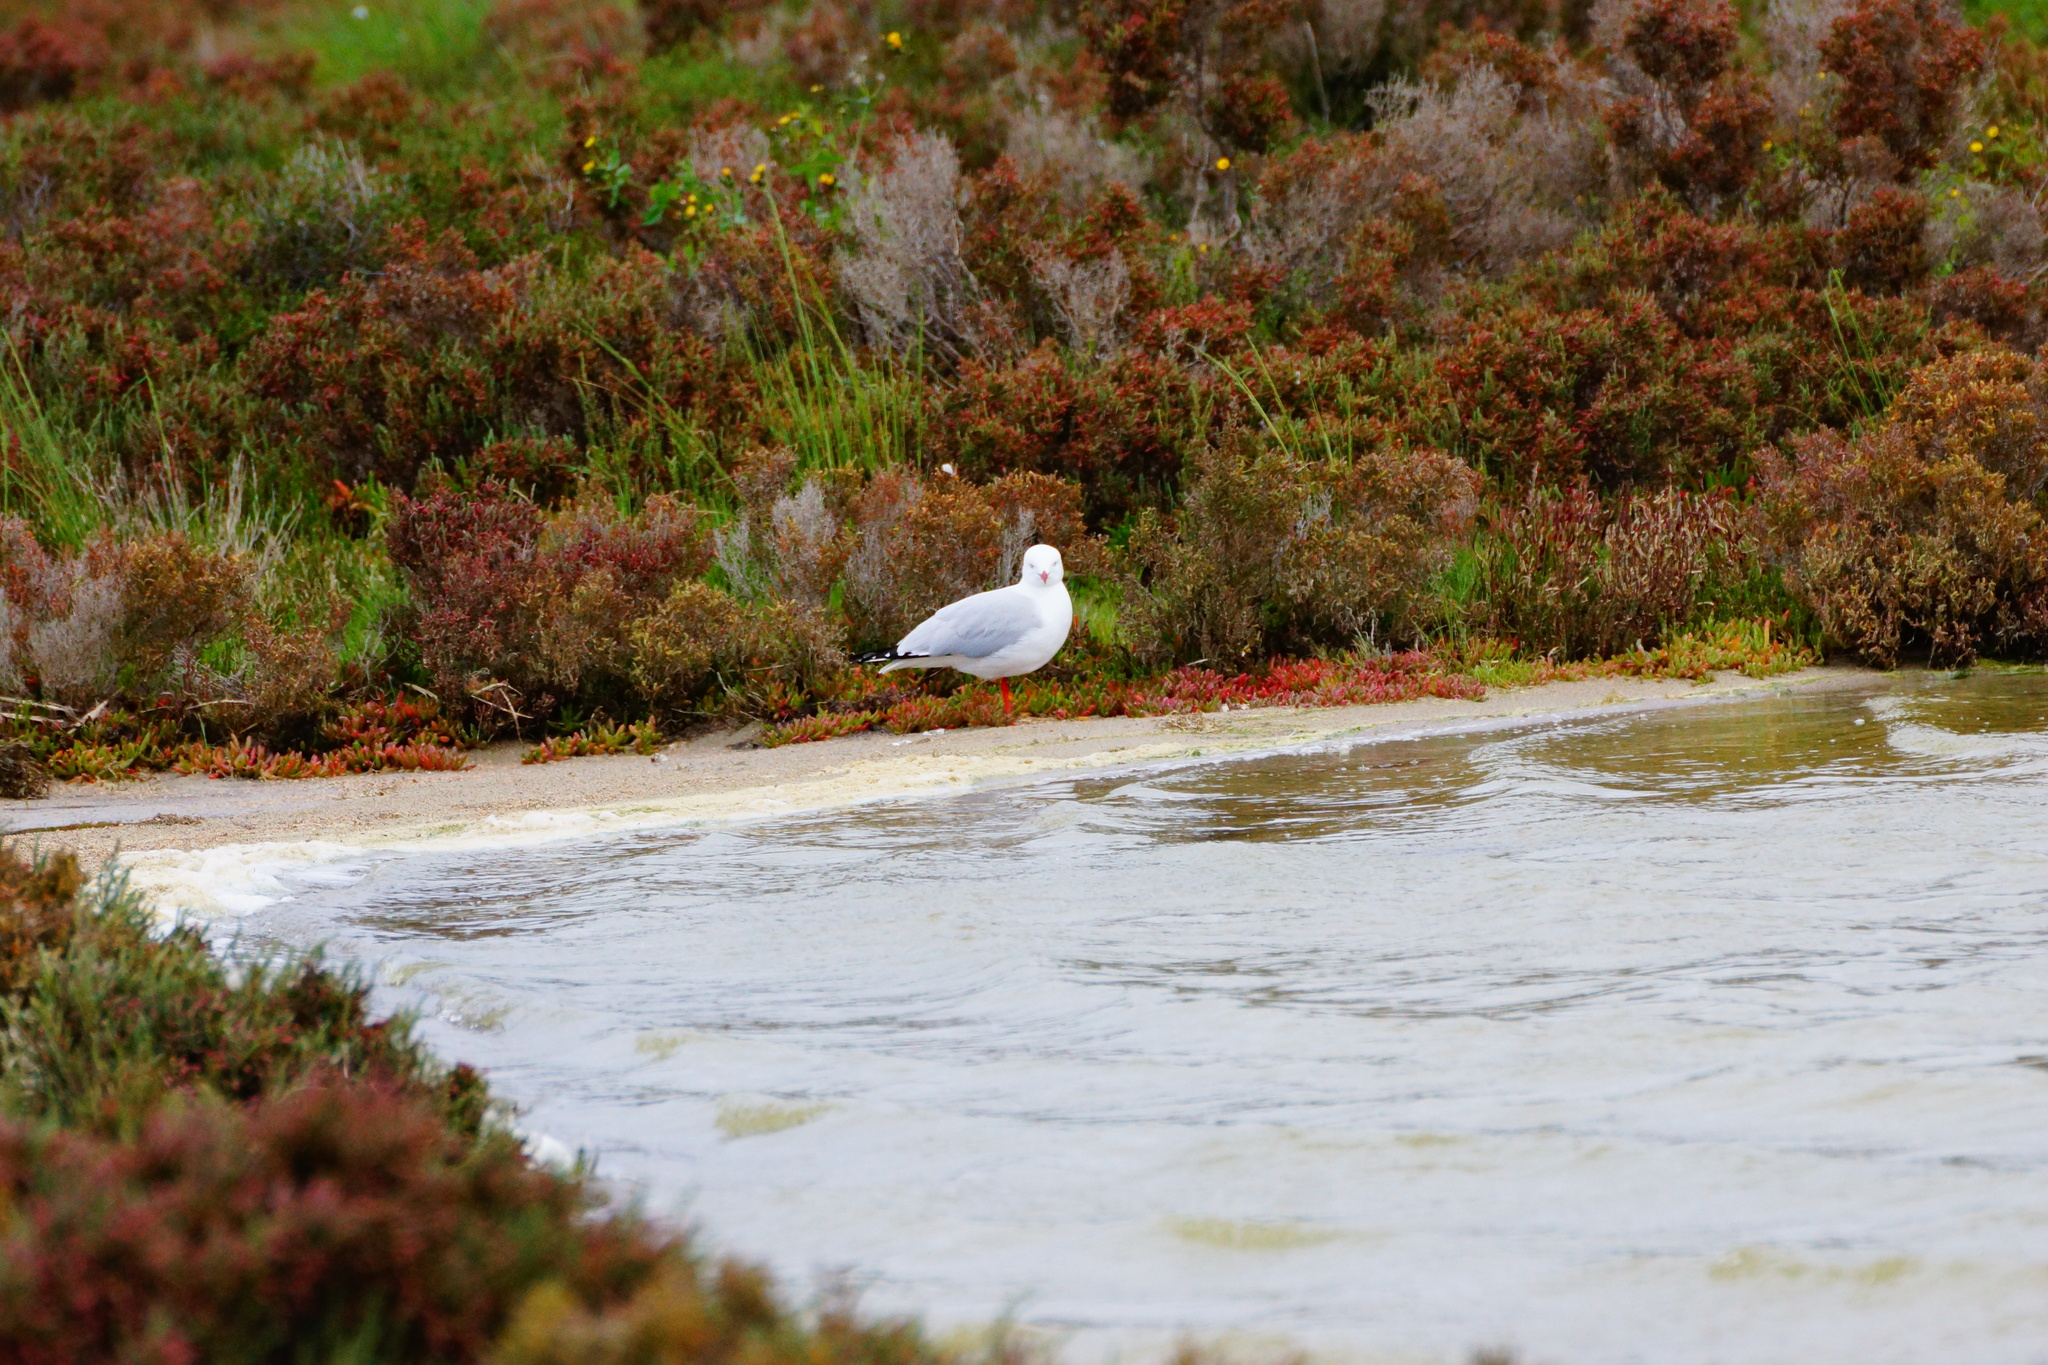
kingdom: Animalia
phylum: Chordata
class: Aves
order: Charadriiformes
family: Laridae
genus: Chroicocephalus
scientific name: Chroicocephalus novaehollandiae
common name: Silver gull
